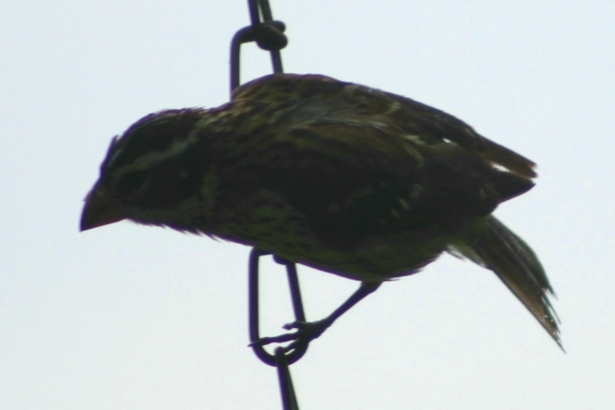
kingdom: Animalia
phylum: Chordata
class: Aves
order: Passeriformes
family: Cardinalidae
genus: Pheucticus
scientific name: Pheucticus ludovicianus
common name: Rose-breasted grosbeak
